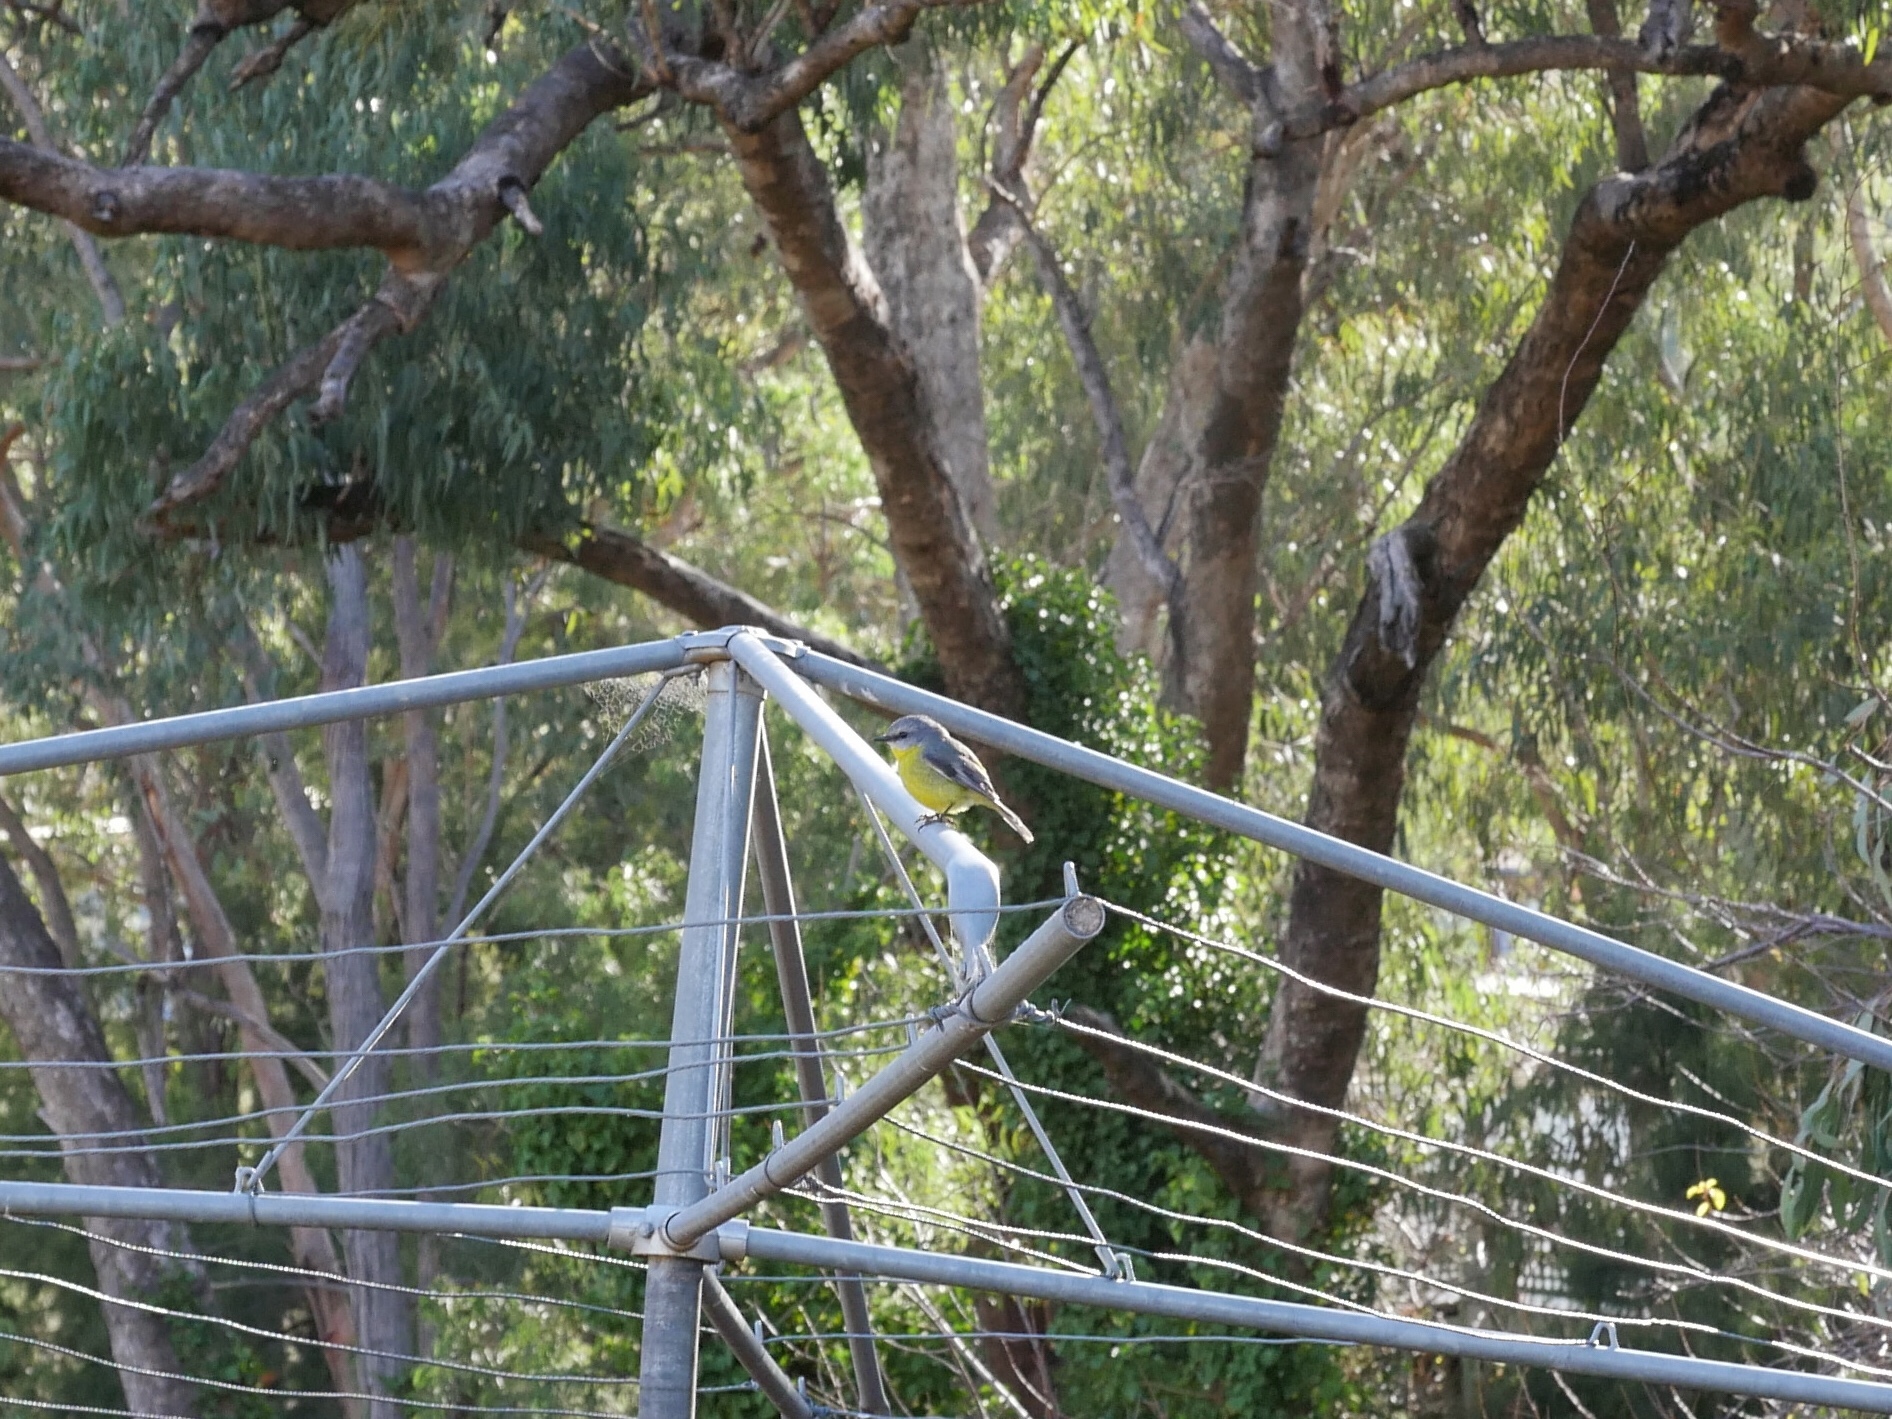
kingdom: Animalia
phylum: Chordata
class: Aves
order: Passeriformes
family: Petroicidae
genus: Eopsaltria
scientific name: Eopsaltria australis
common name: Eastern yellow robin
